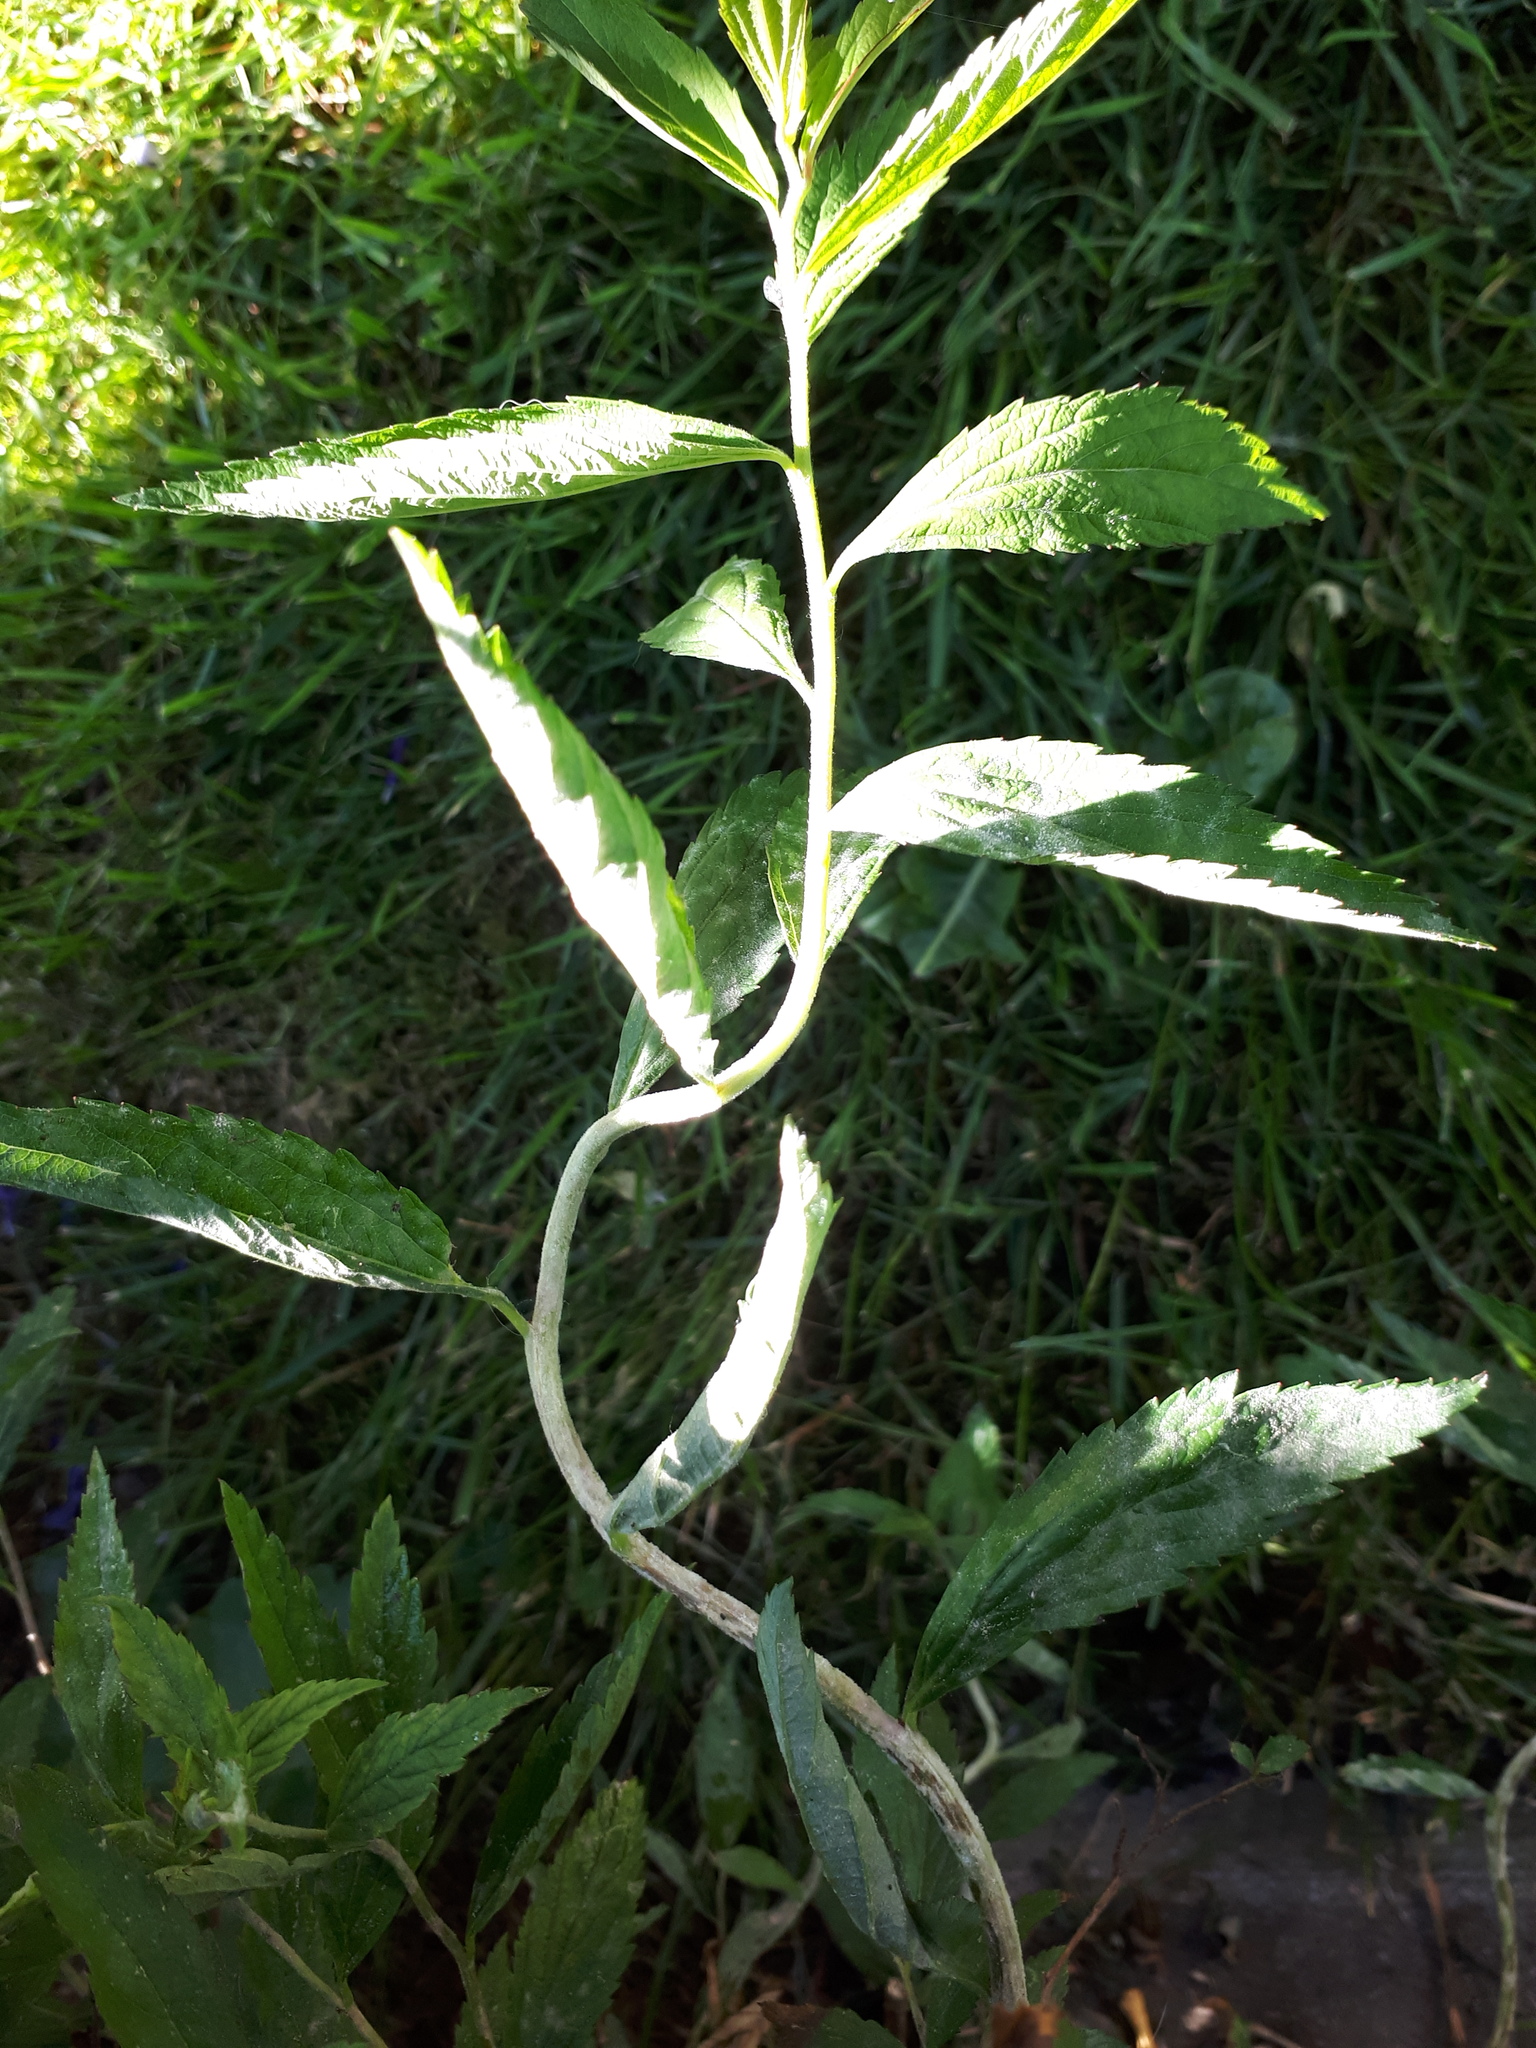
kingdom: Fungi
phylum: Ascomycota
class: Leotiomycetes
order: Helotiales
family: Erysiphaceae
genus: Podosphaera
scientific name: Podosphaera spiraeae
